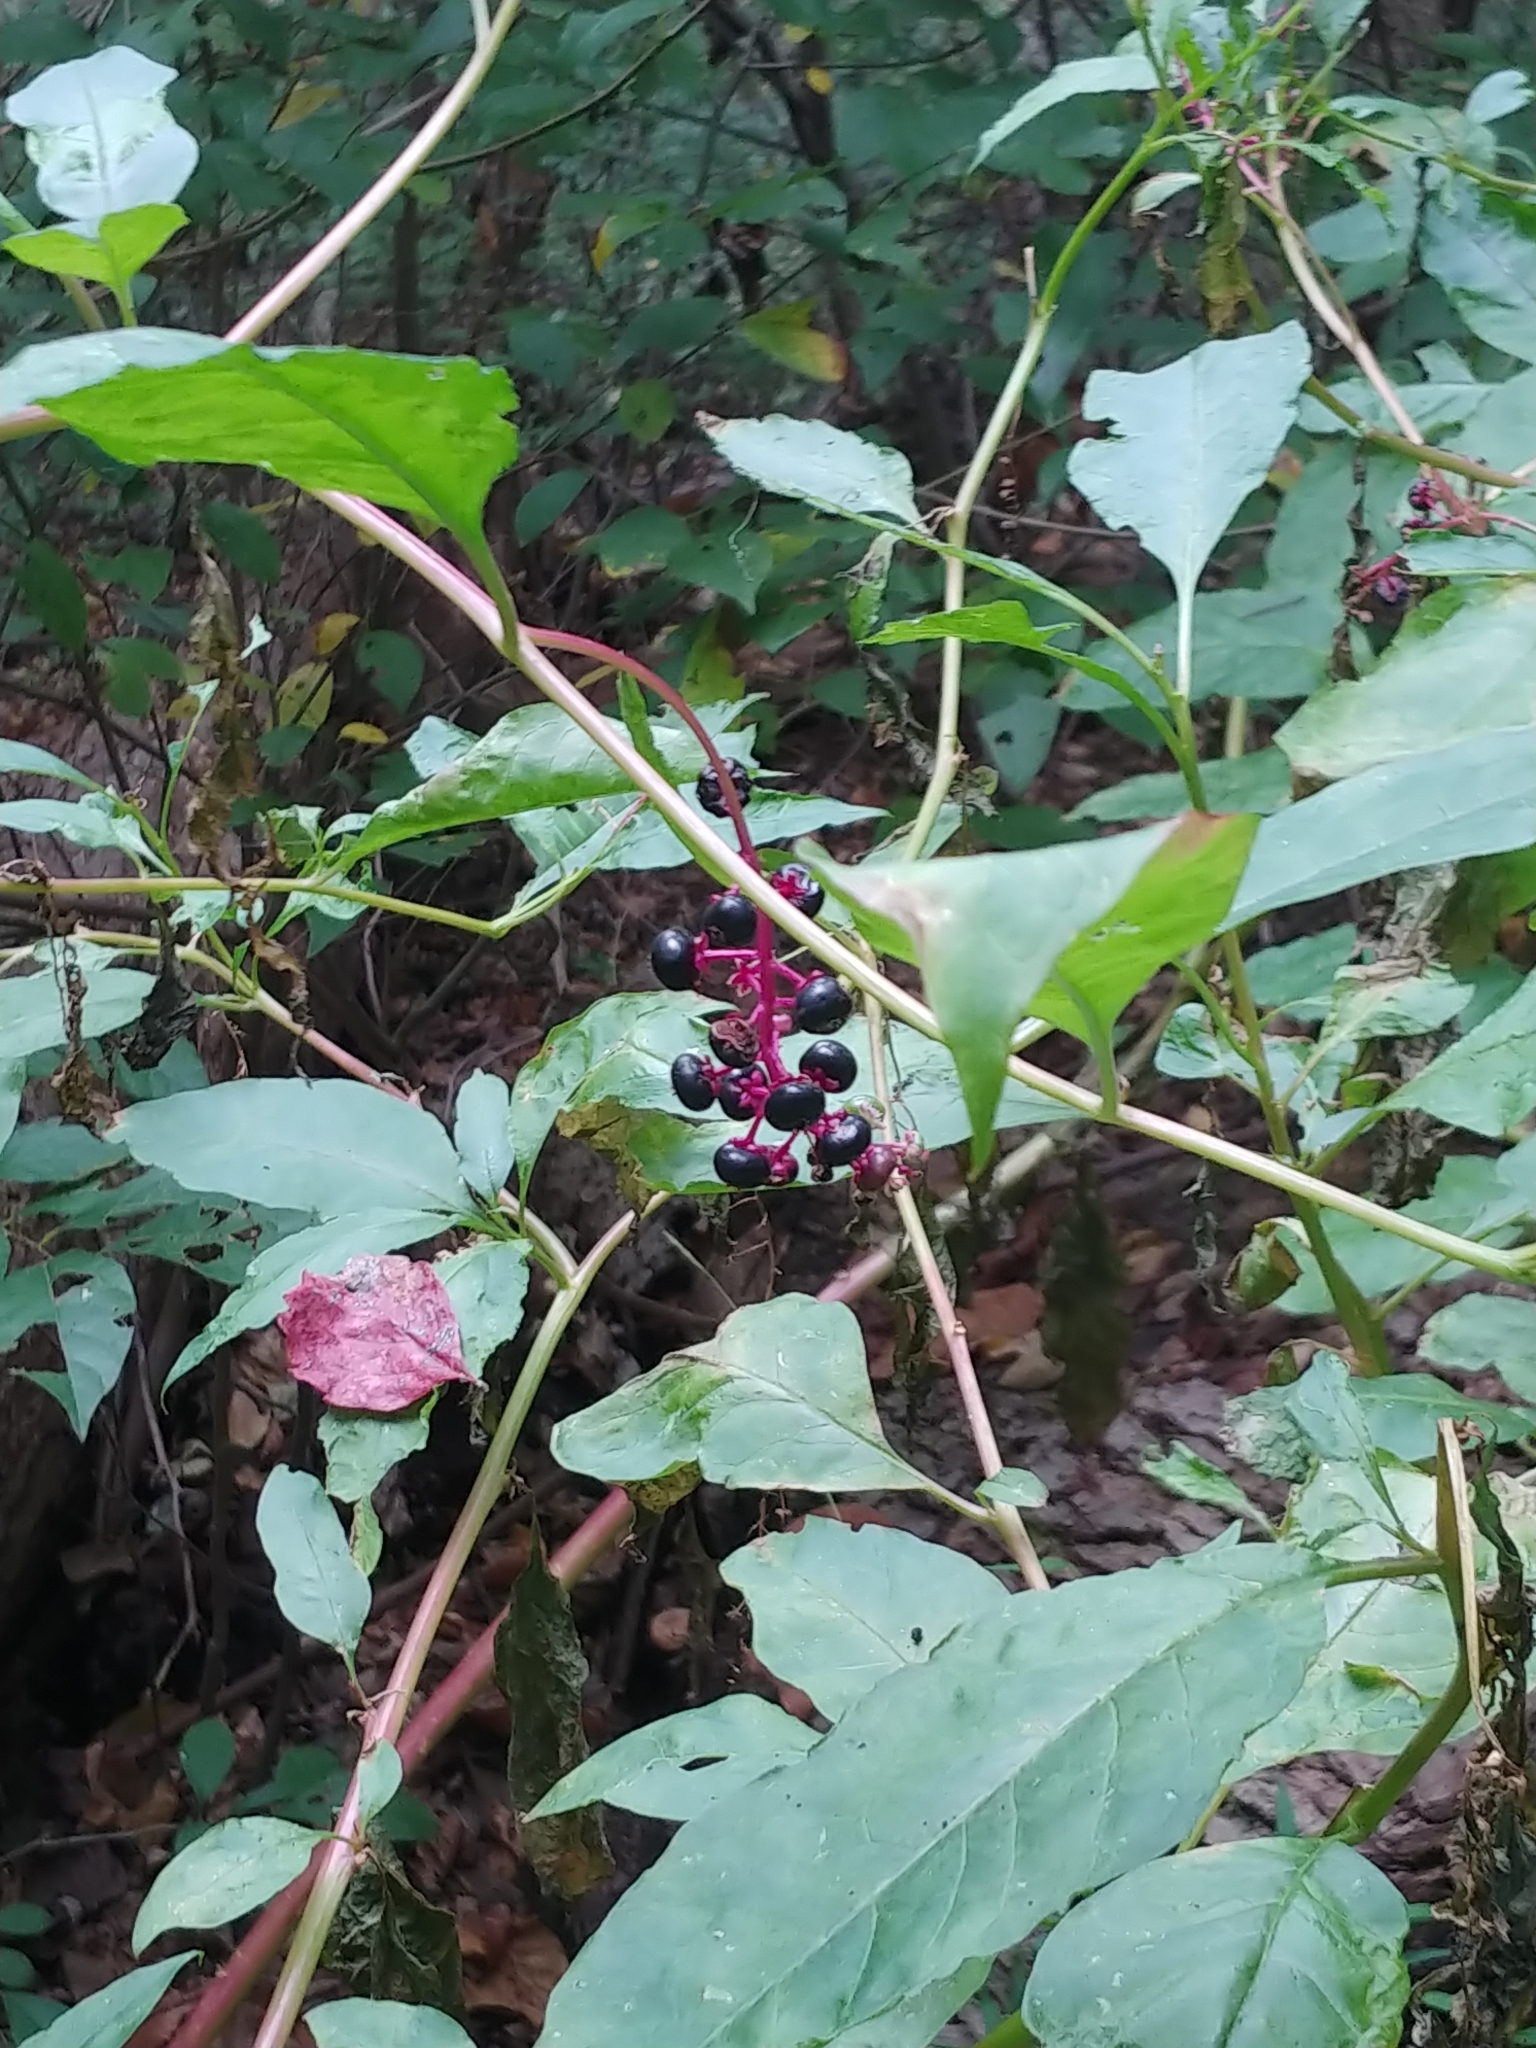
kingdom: Plantae
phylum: Tracheophyta
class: Magnoliopsida
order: Caryophyllales
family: Phytolaccaceae
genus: Phytolacca
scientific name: Phytolacca americana
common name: American pokeweed
